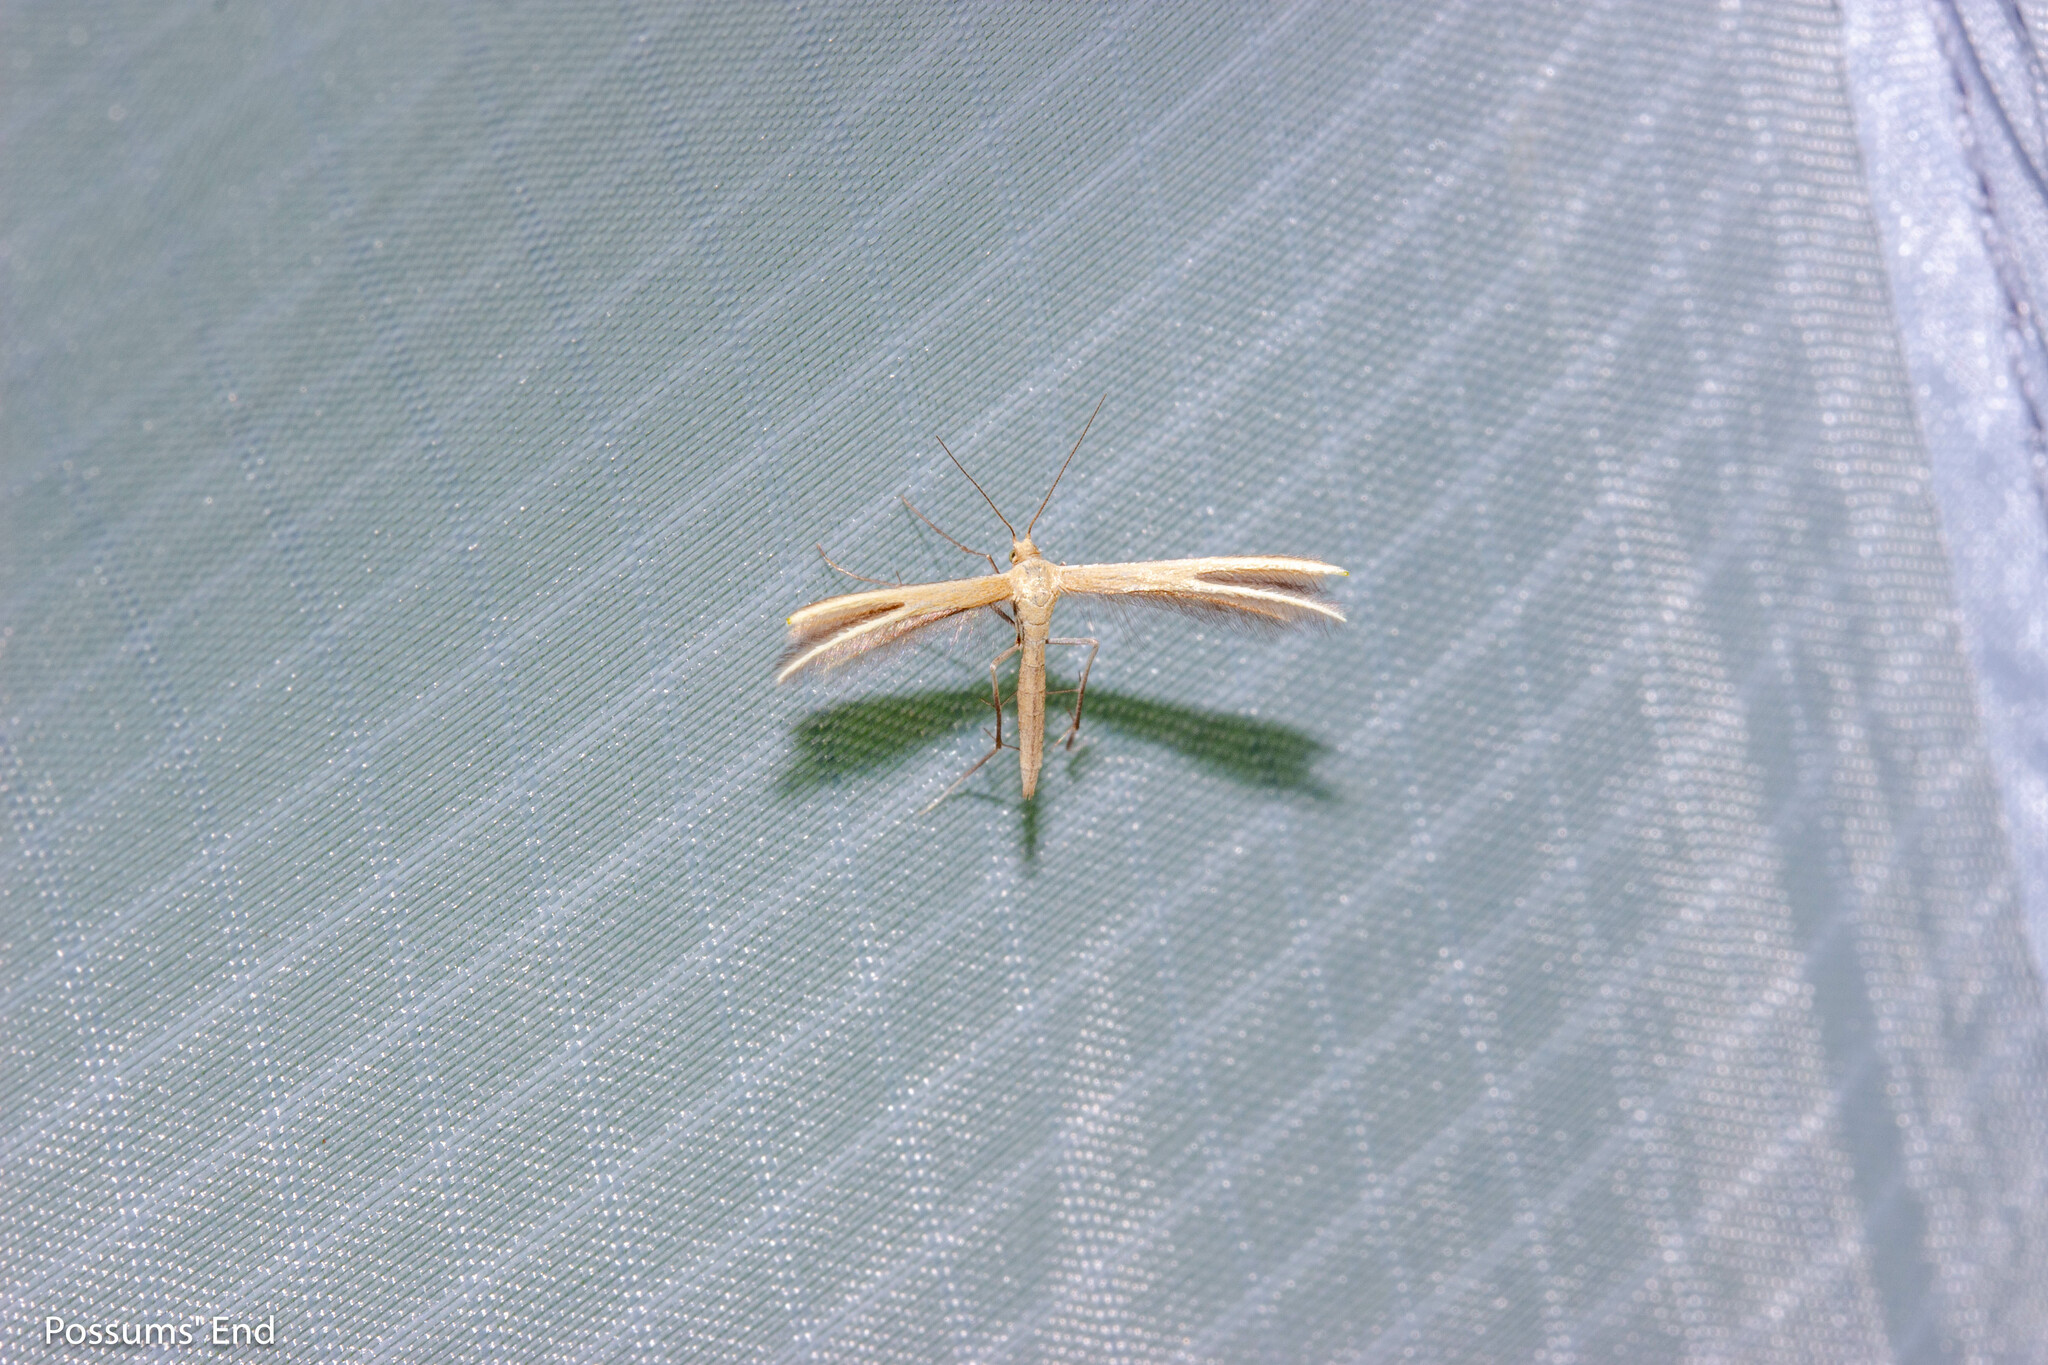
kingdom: Animalia
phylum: Arthropoda
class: Insecta
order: Lepidoptera
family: Pterophoridae
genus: Pterophorus
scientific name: Pterophorus innotatalis
